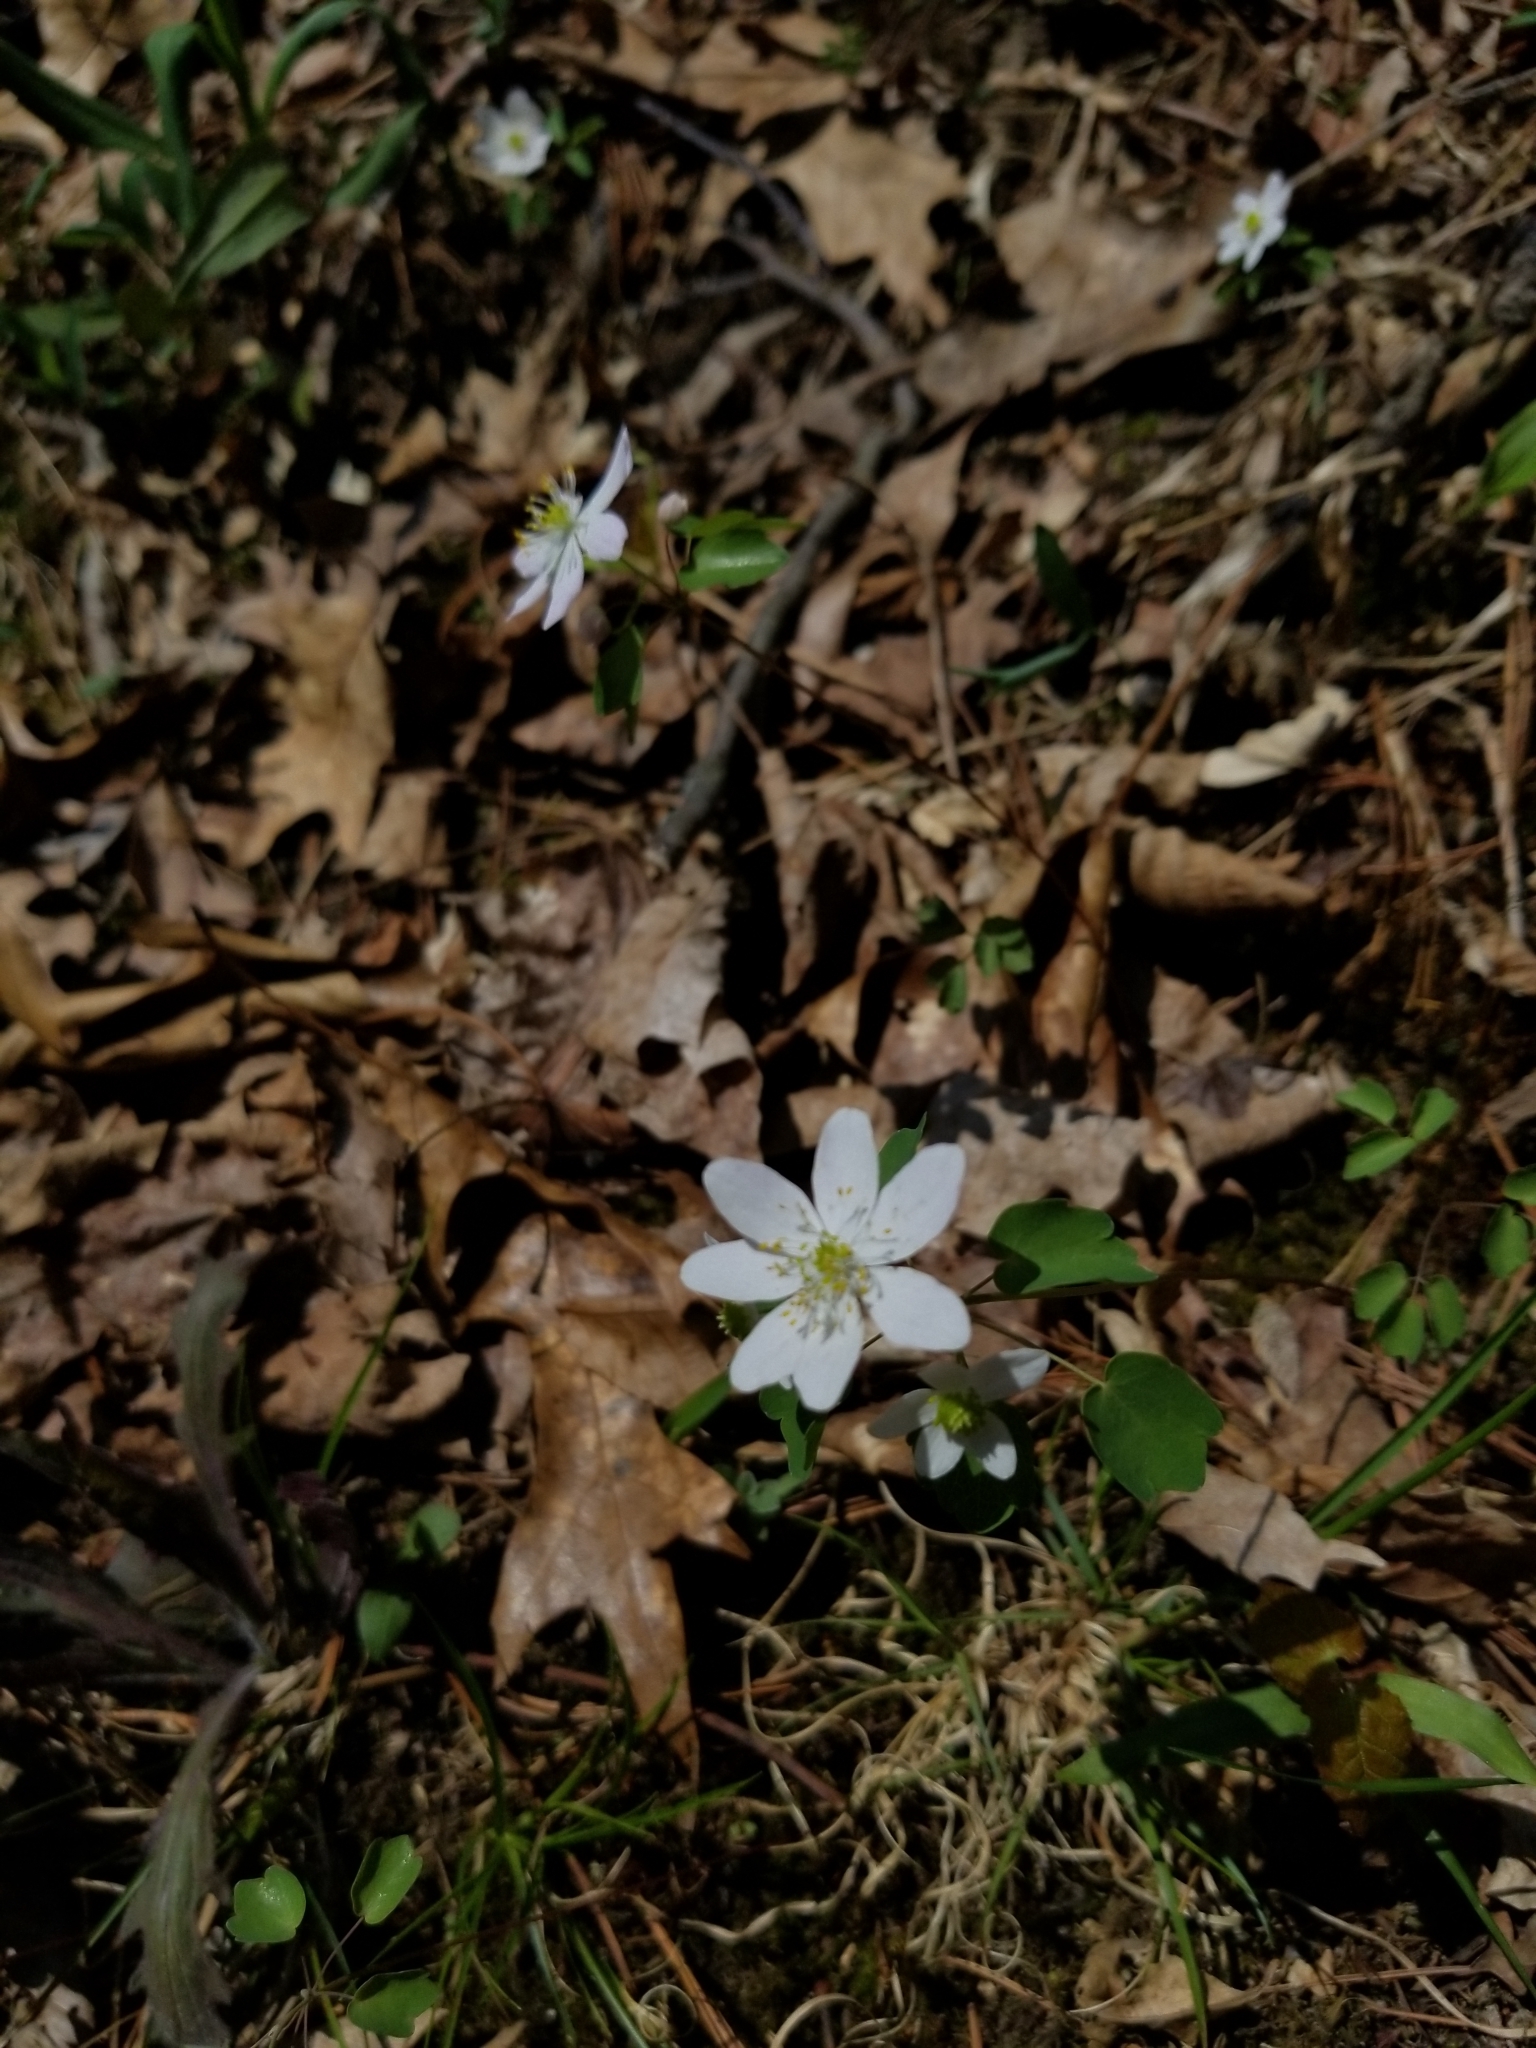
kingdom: Plantae
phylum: Tracheophyta
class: Magnoliopsida
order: Ranunculales
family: Ranunculaceae
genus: Thalictrum
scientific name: Thalictrum thalictroides
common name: Rue-anemone
